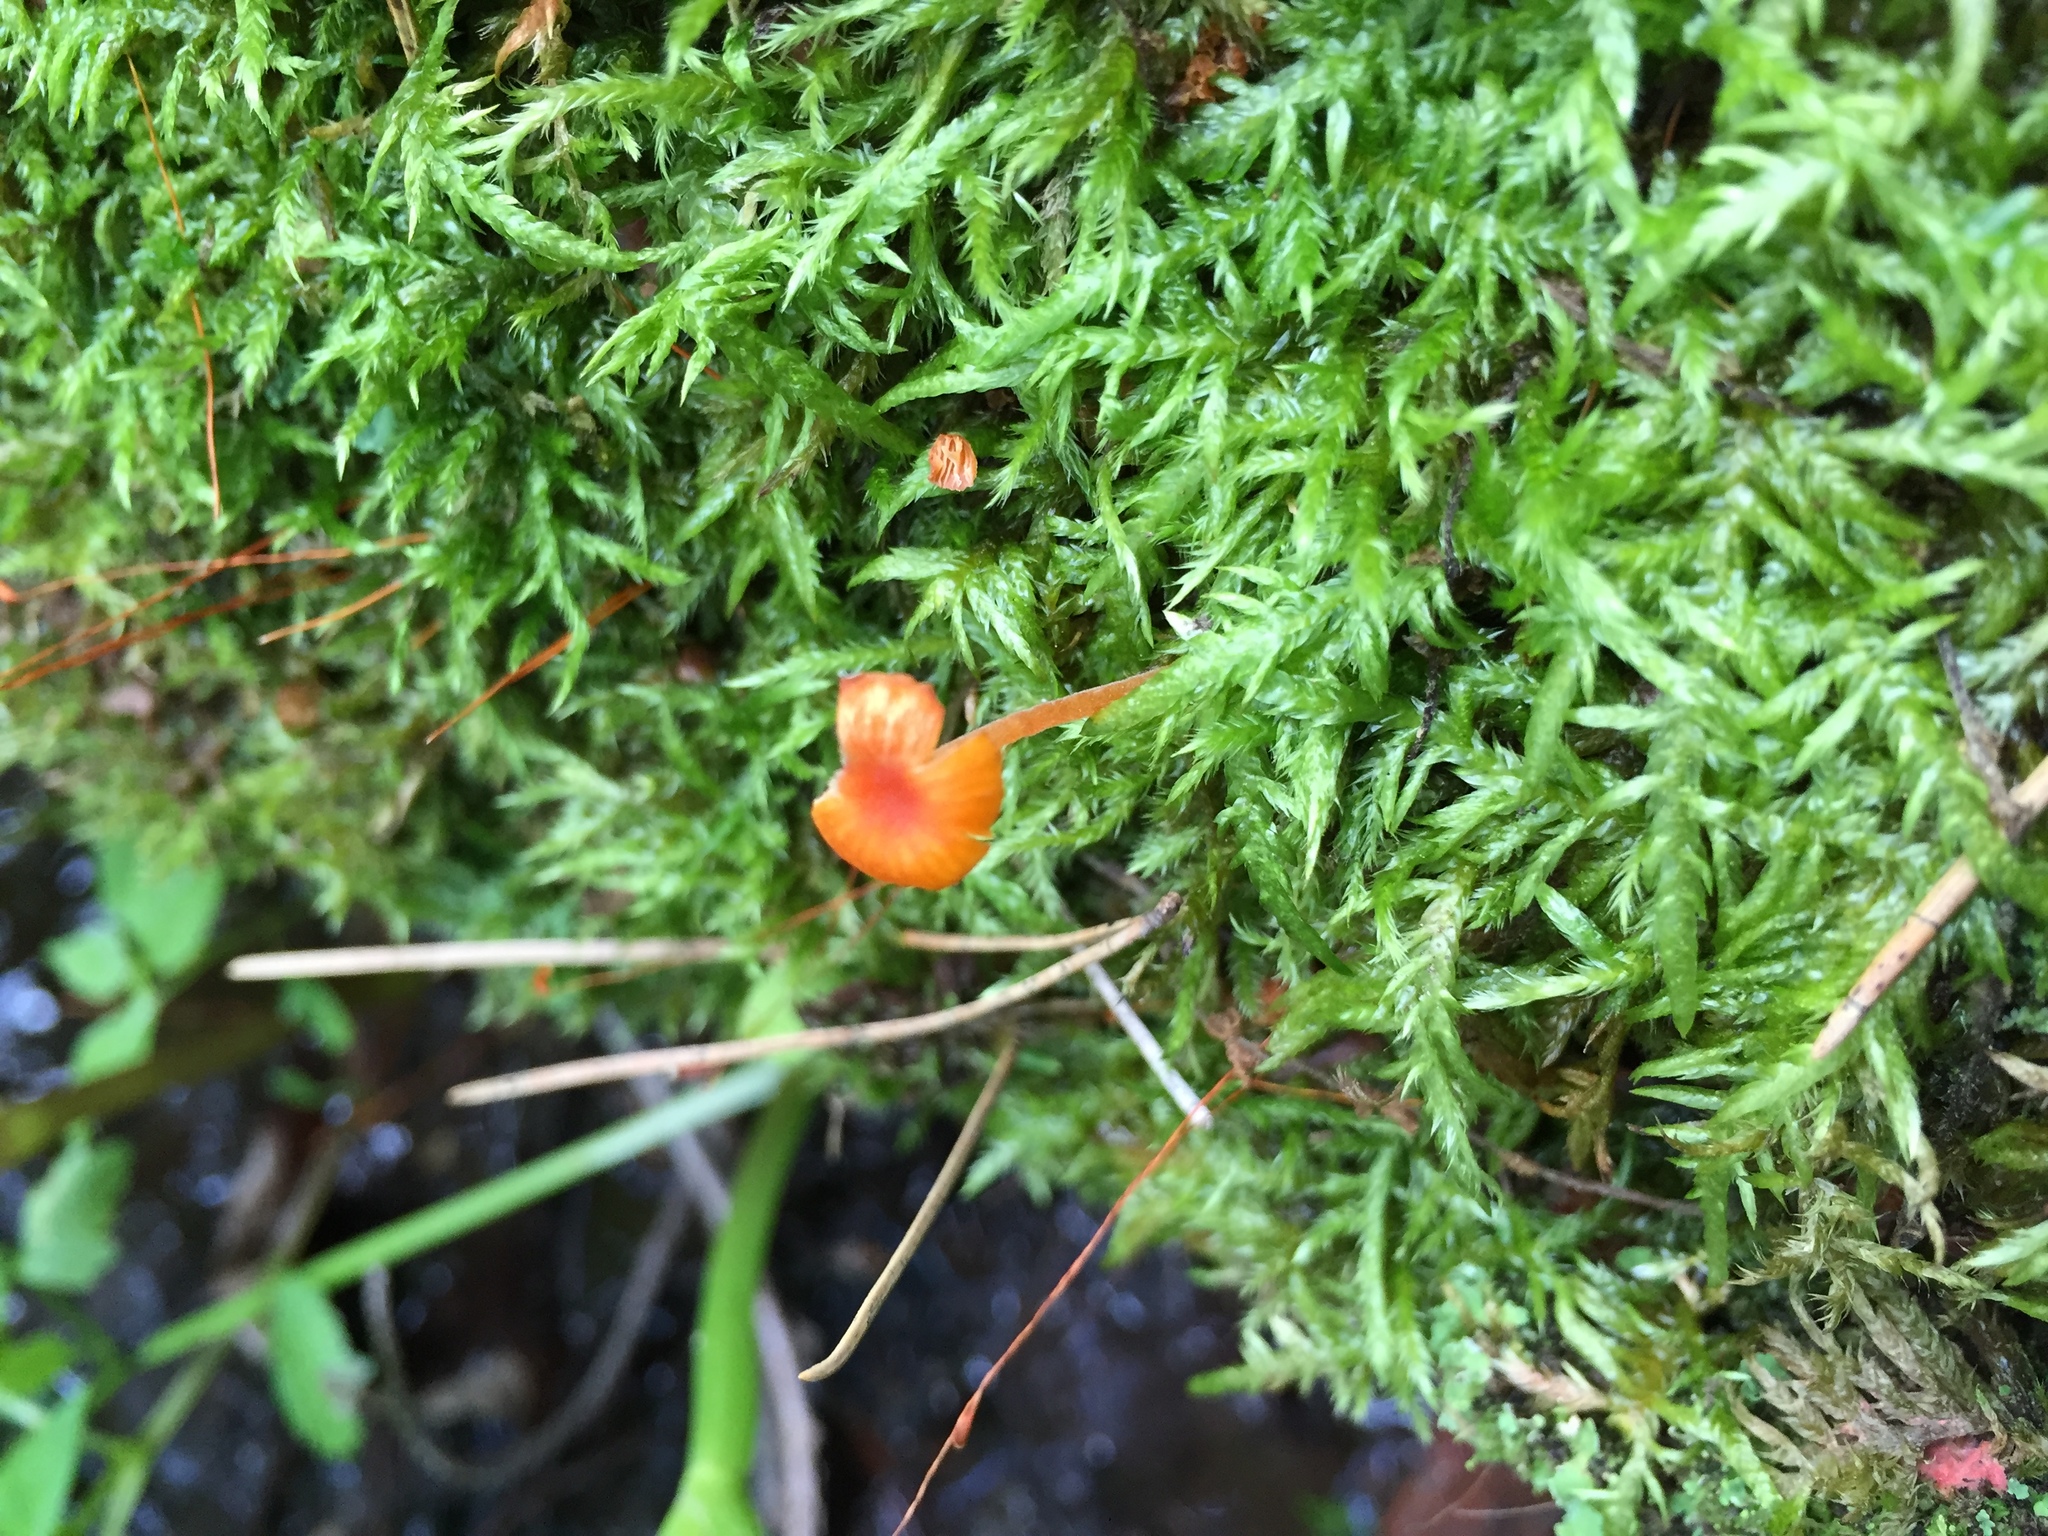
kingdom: Fungi
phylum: Basidiomycota
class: Agaricomycetes
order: Hymenochaetales
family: Rickenellaceae
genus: Rickenella
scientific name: Rickenella fibula
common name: Orange mosscap
